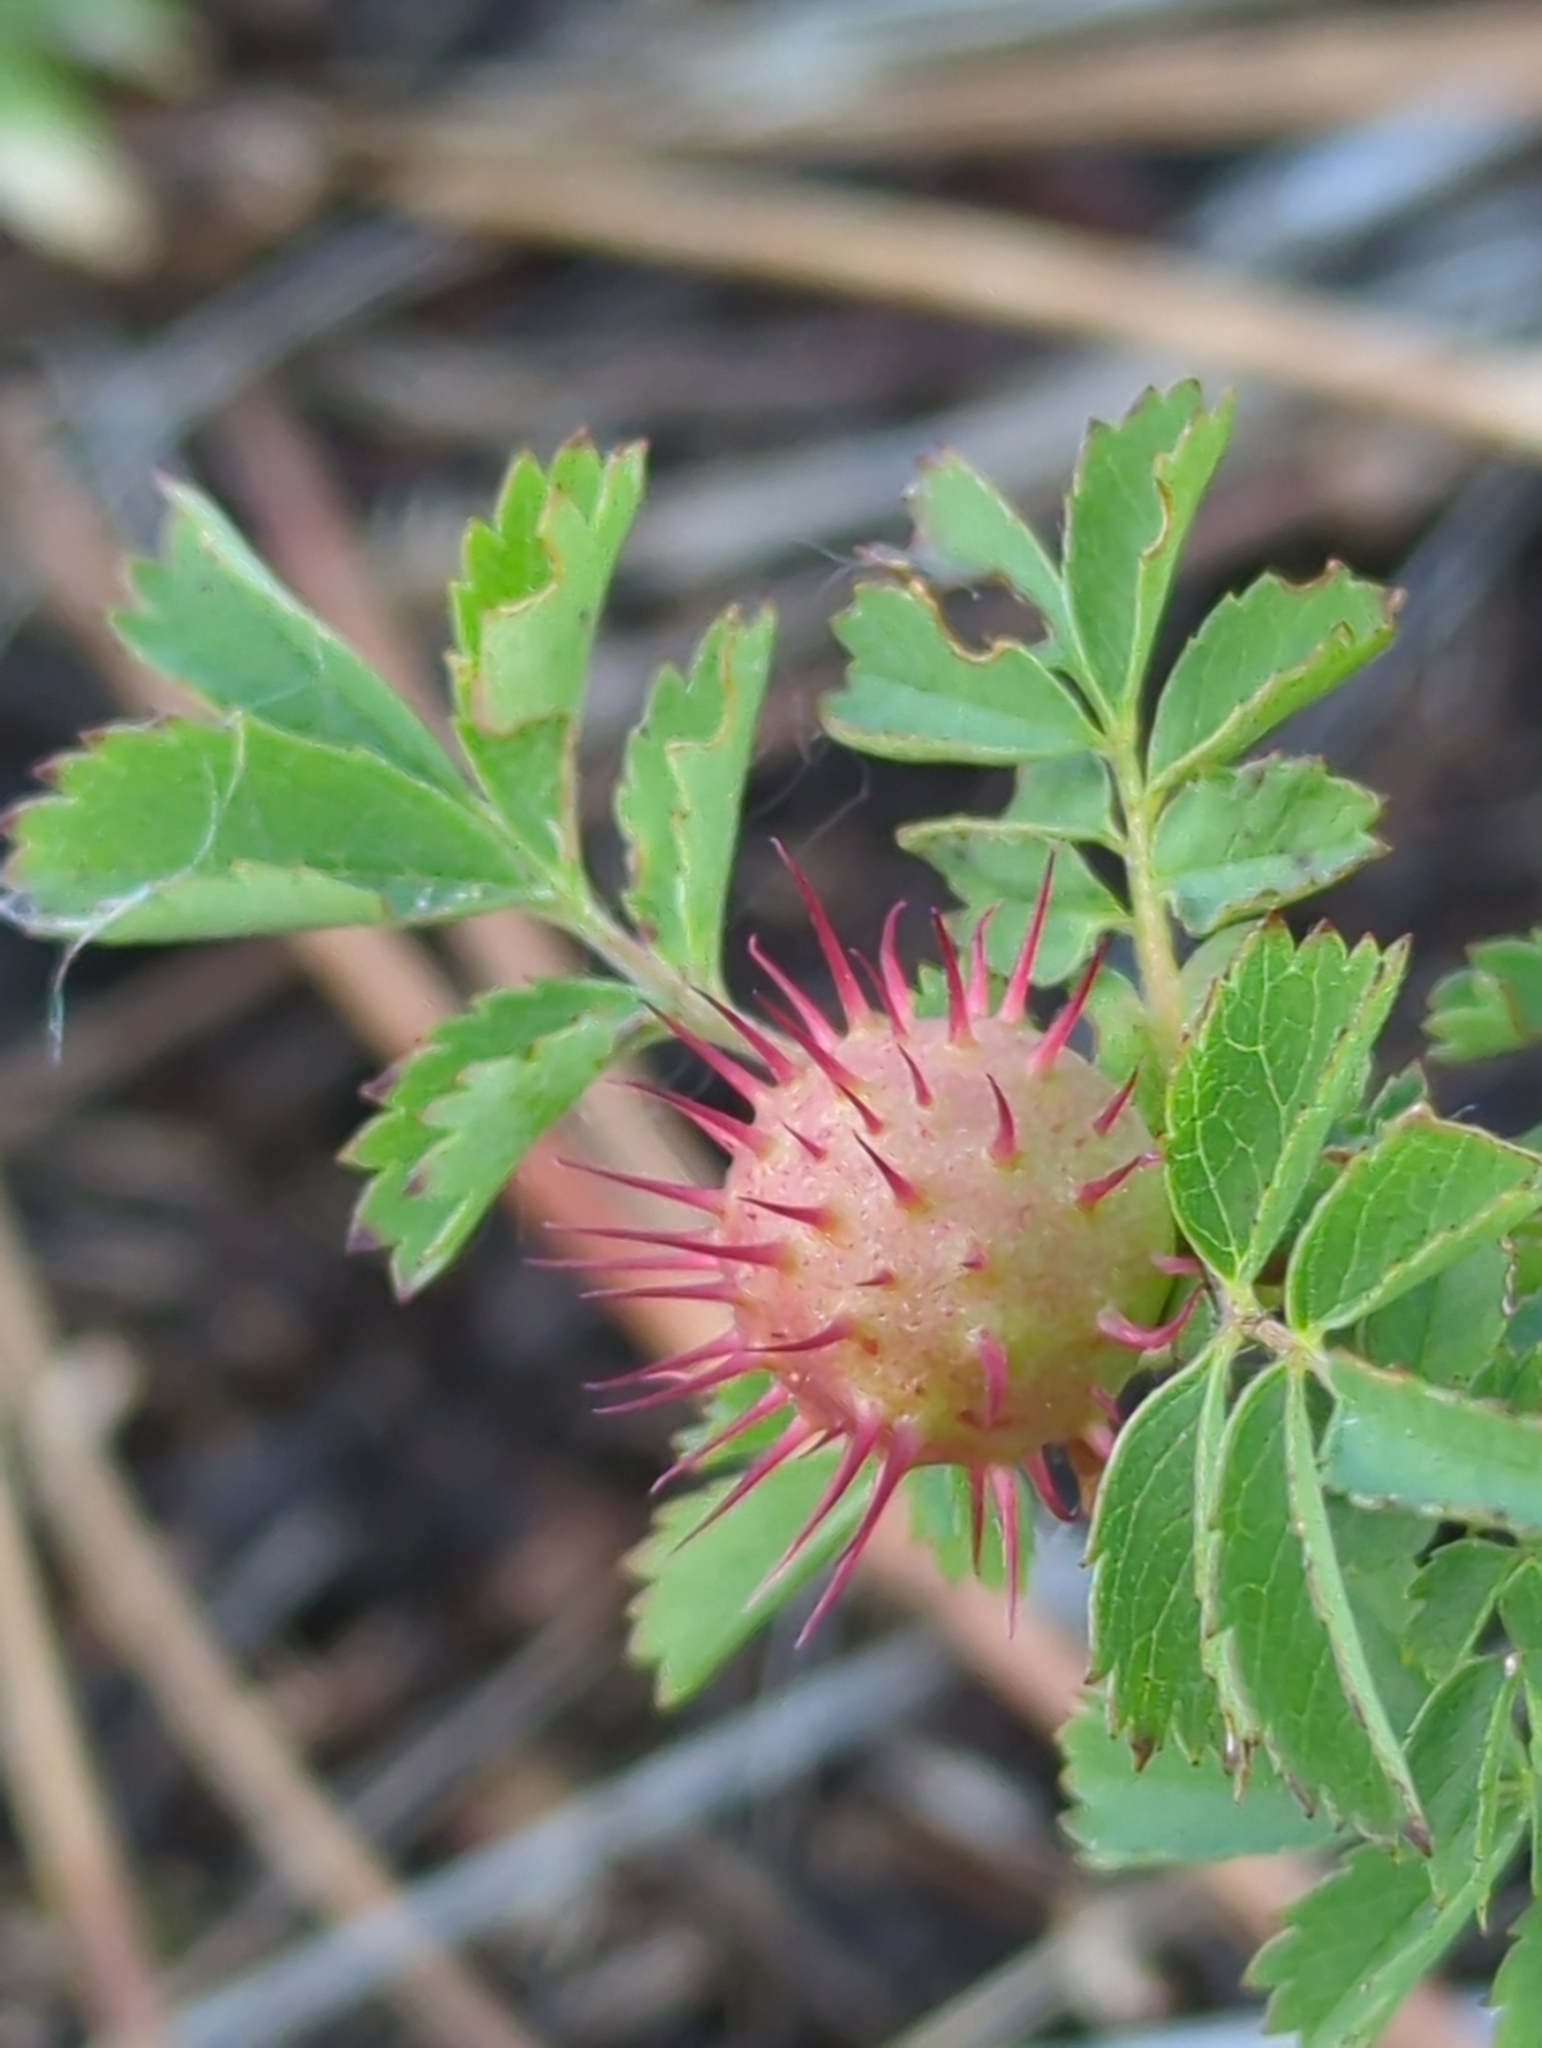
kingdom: Animalia
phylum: Arthropoda
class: Insecta
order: Hymenoptera
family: Cynipidae
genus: Diplolepis
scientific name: Diplolepis polita
